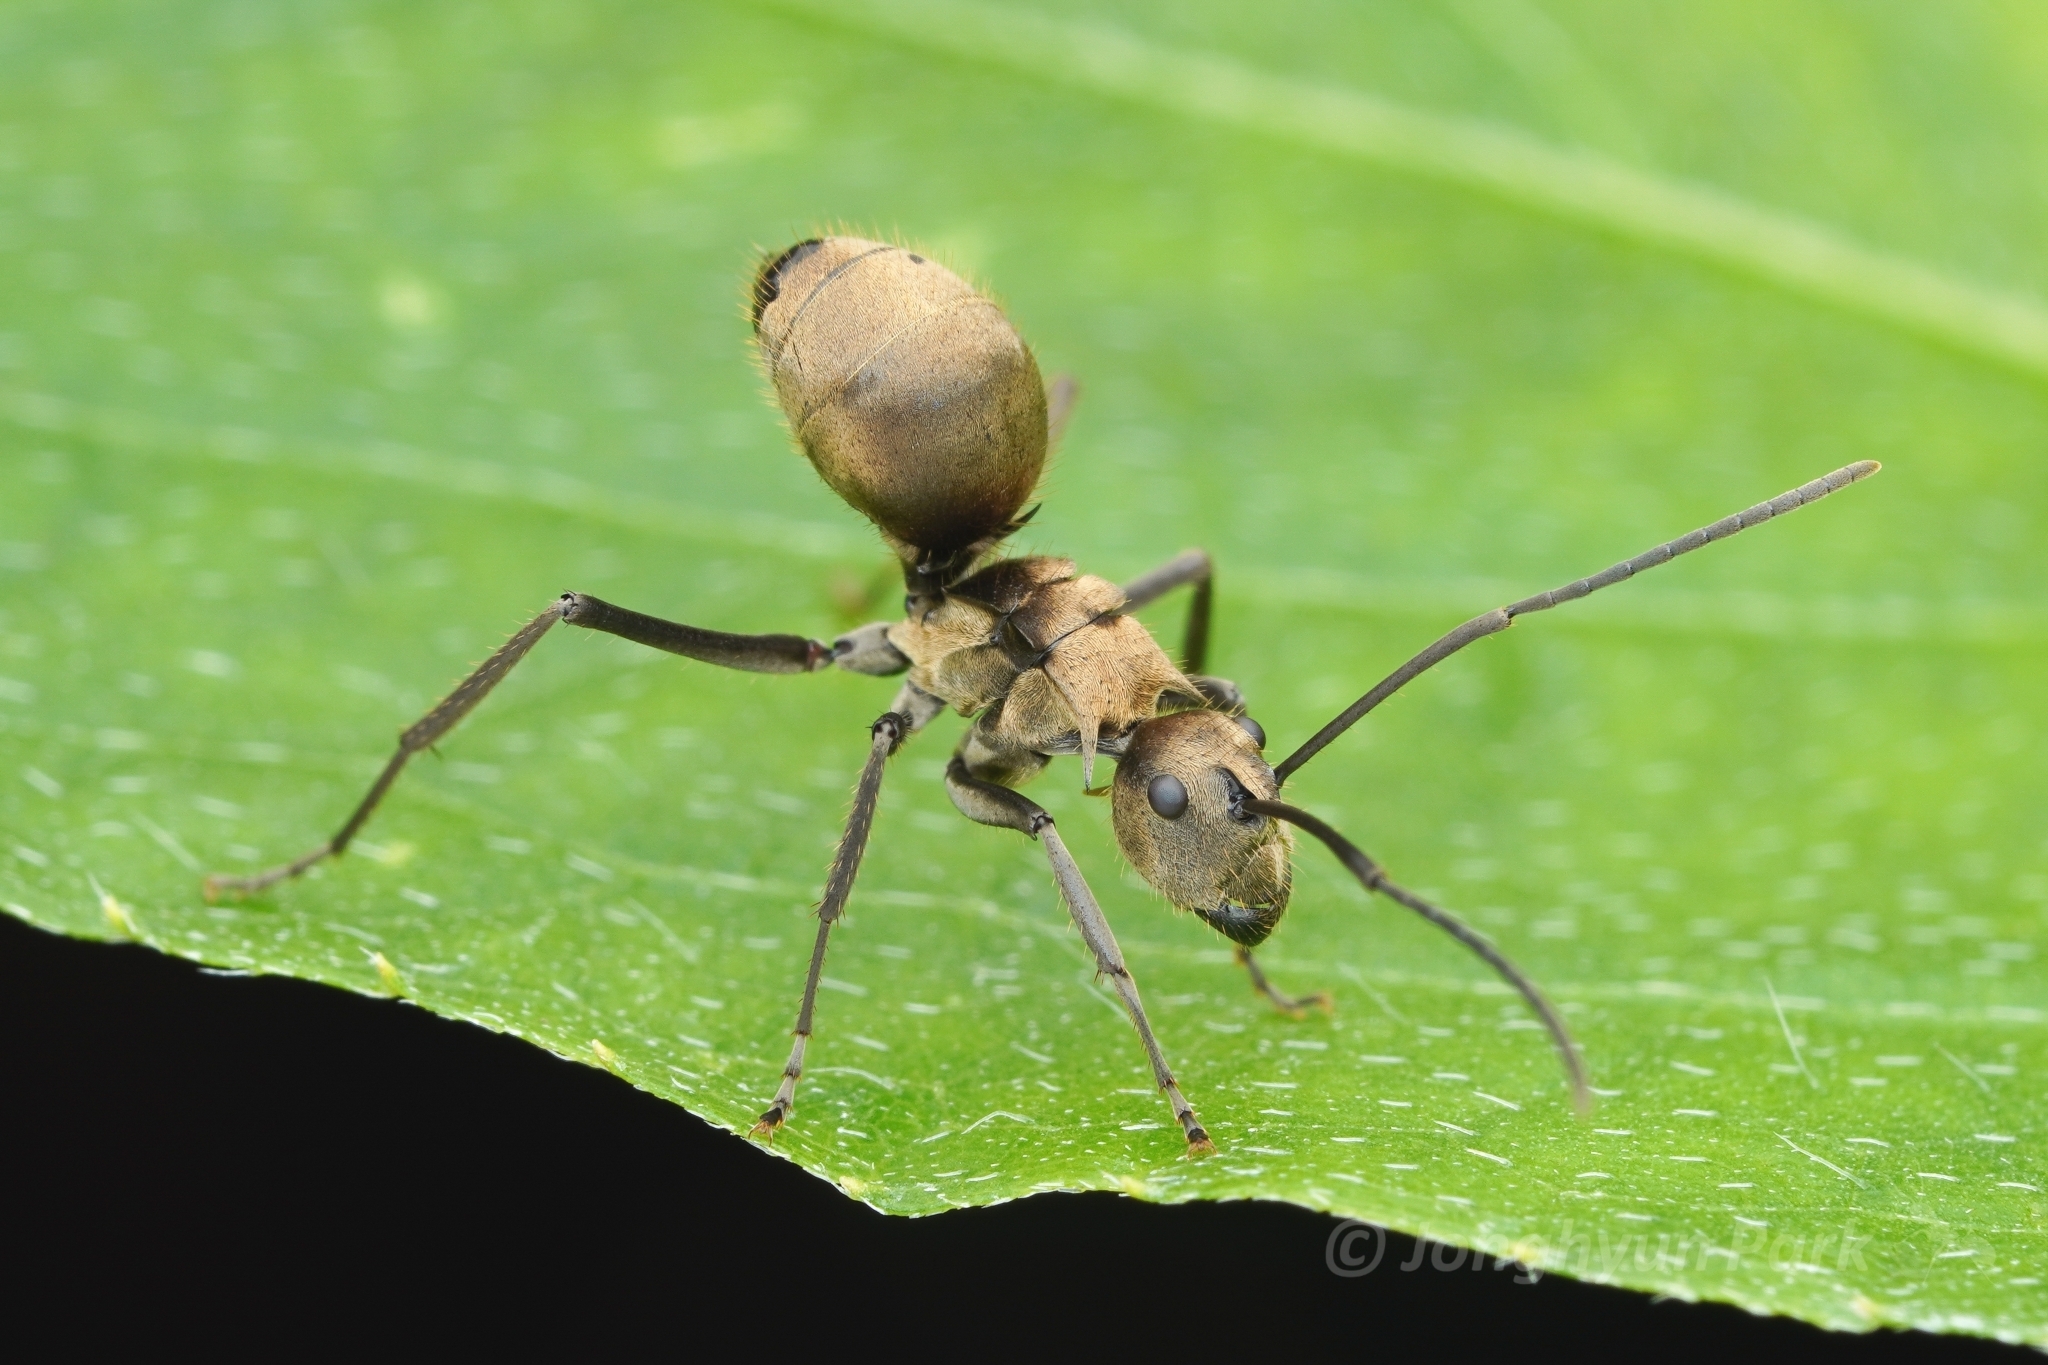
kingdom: Animalia
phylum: Arthropoda
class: Insecta
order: Hymenoptera
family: Formicidae
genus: Polyrhachis
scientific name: Polyrhachis proxima
